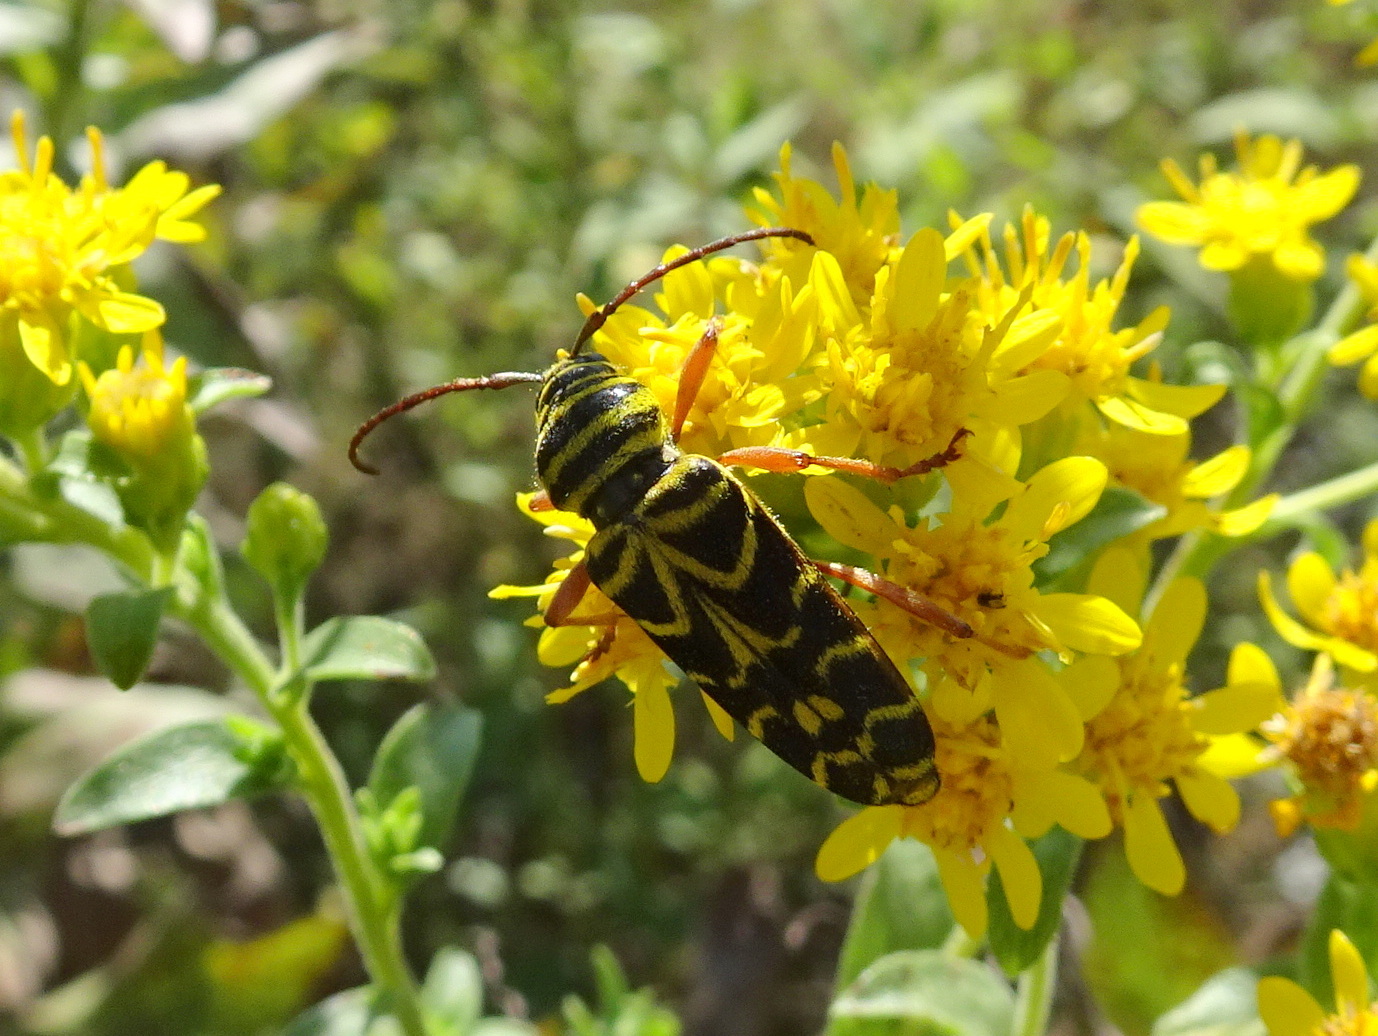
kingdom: Animalia
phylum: Arthropoda
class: Insecta
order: Coleoptera
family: Cerambycidae
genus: Megacyllene
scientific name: Megacyllene robiniae
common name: Locust borer
